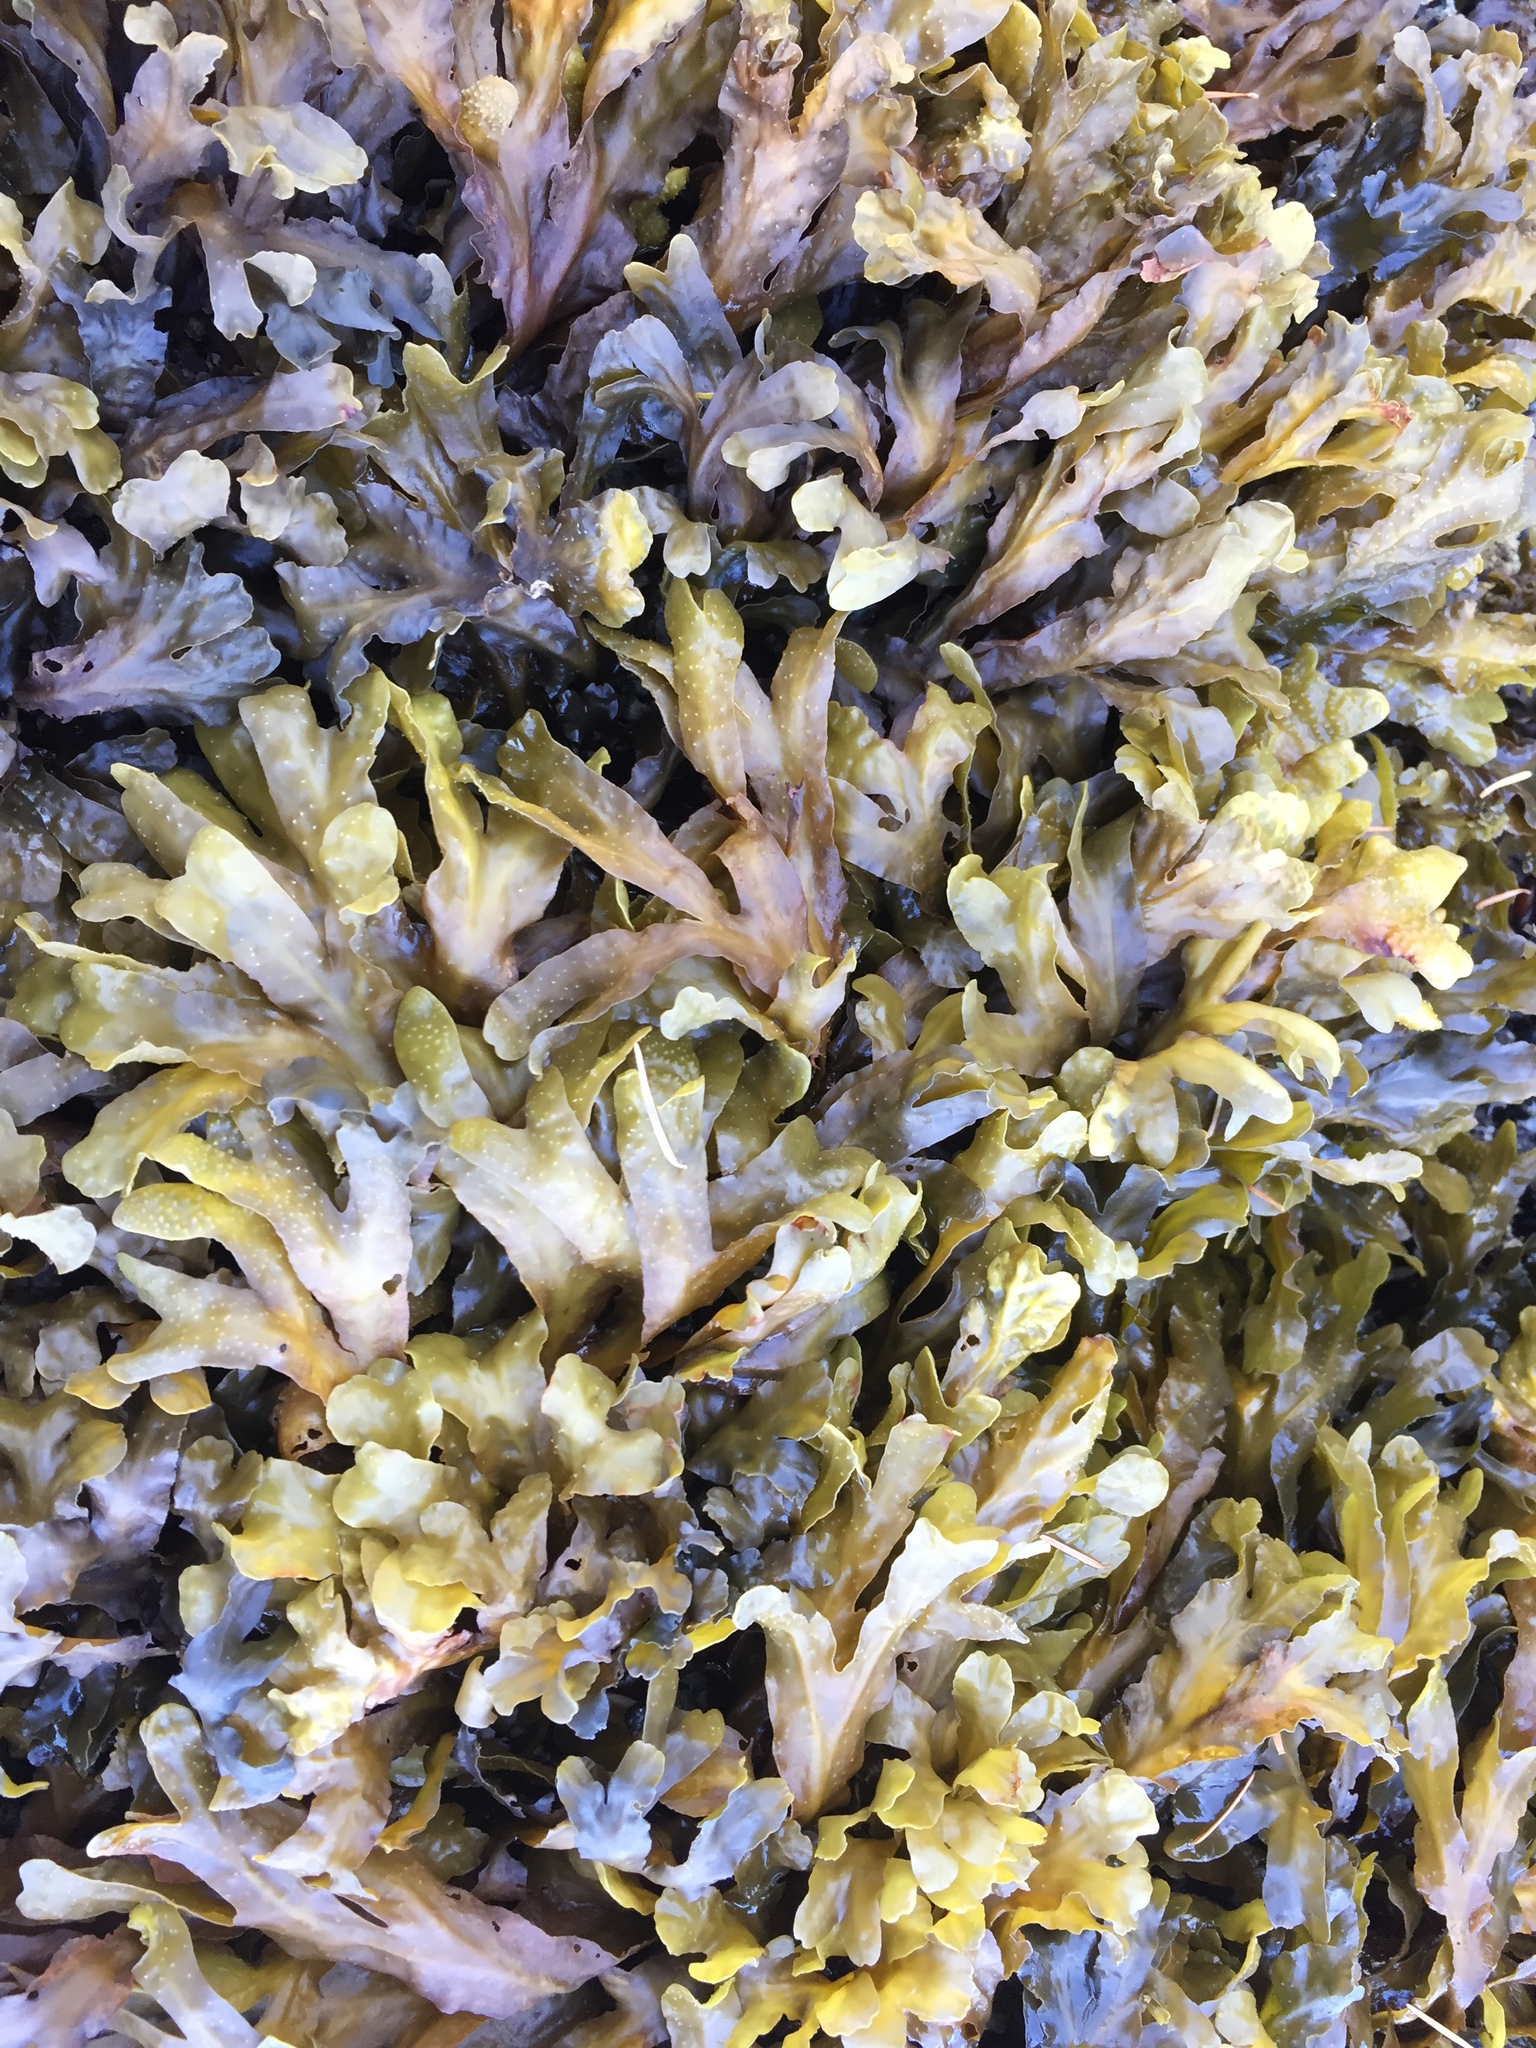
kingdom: Chromista
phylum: Ochrophyta
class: Phaeophyceae
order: Fucales
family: Fucaceae
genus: Fucus
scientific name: Fucus distichus
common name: Rockweed
